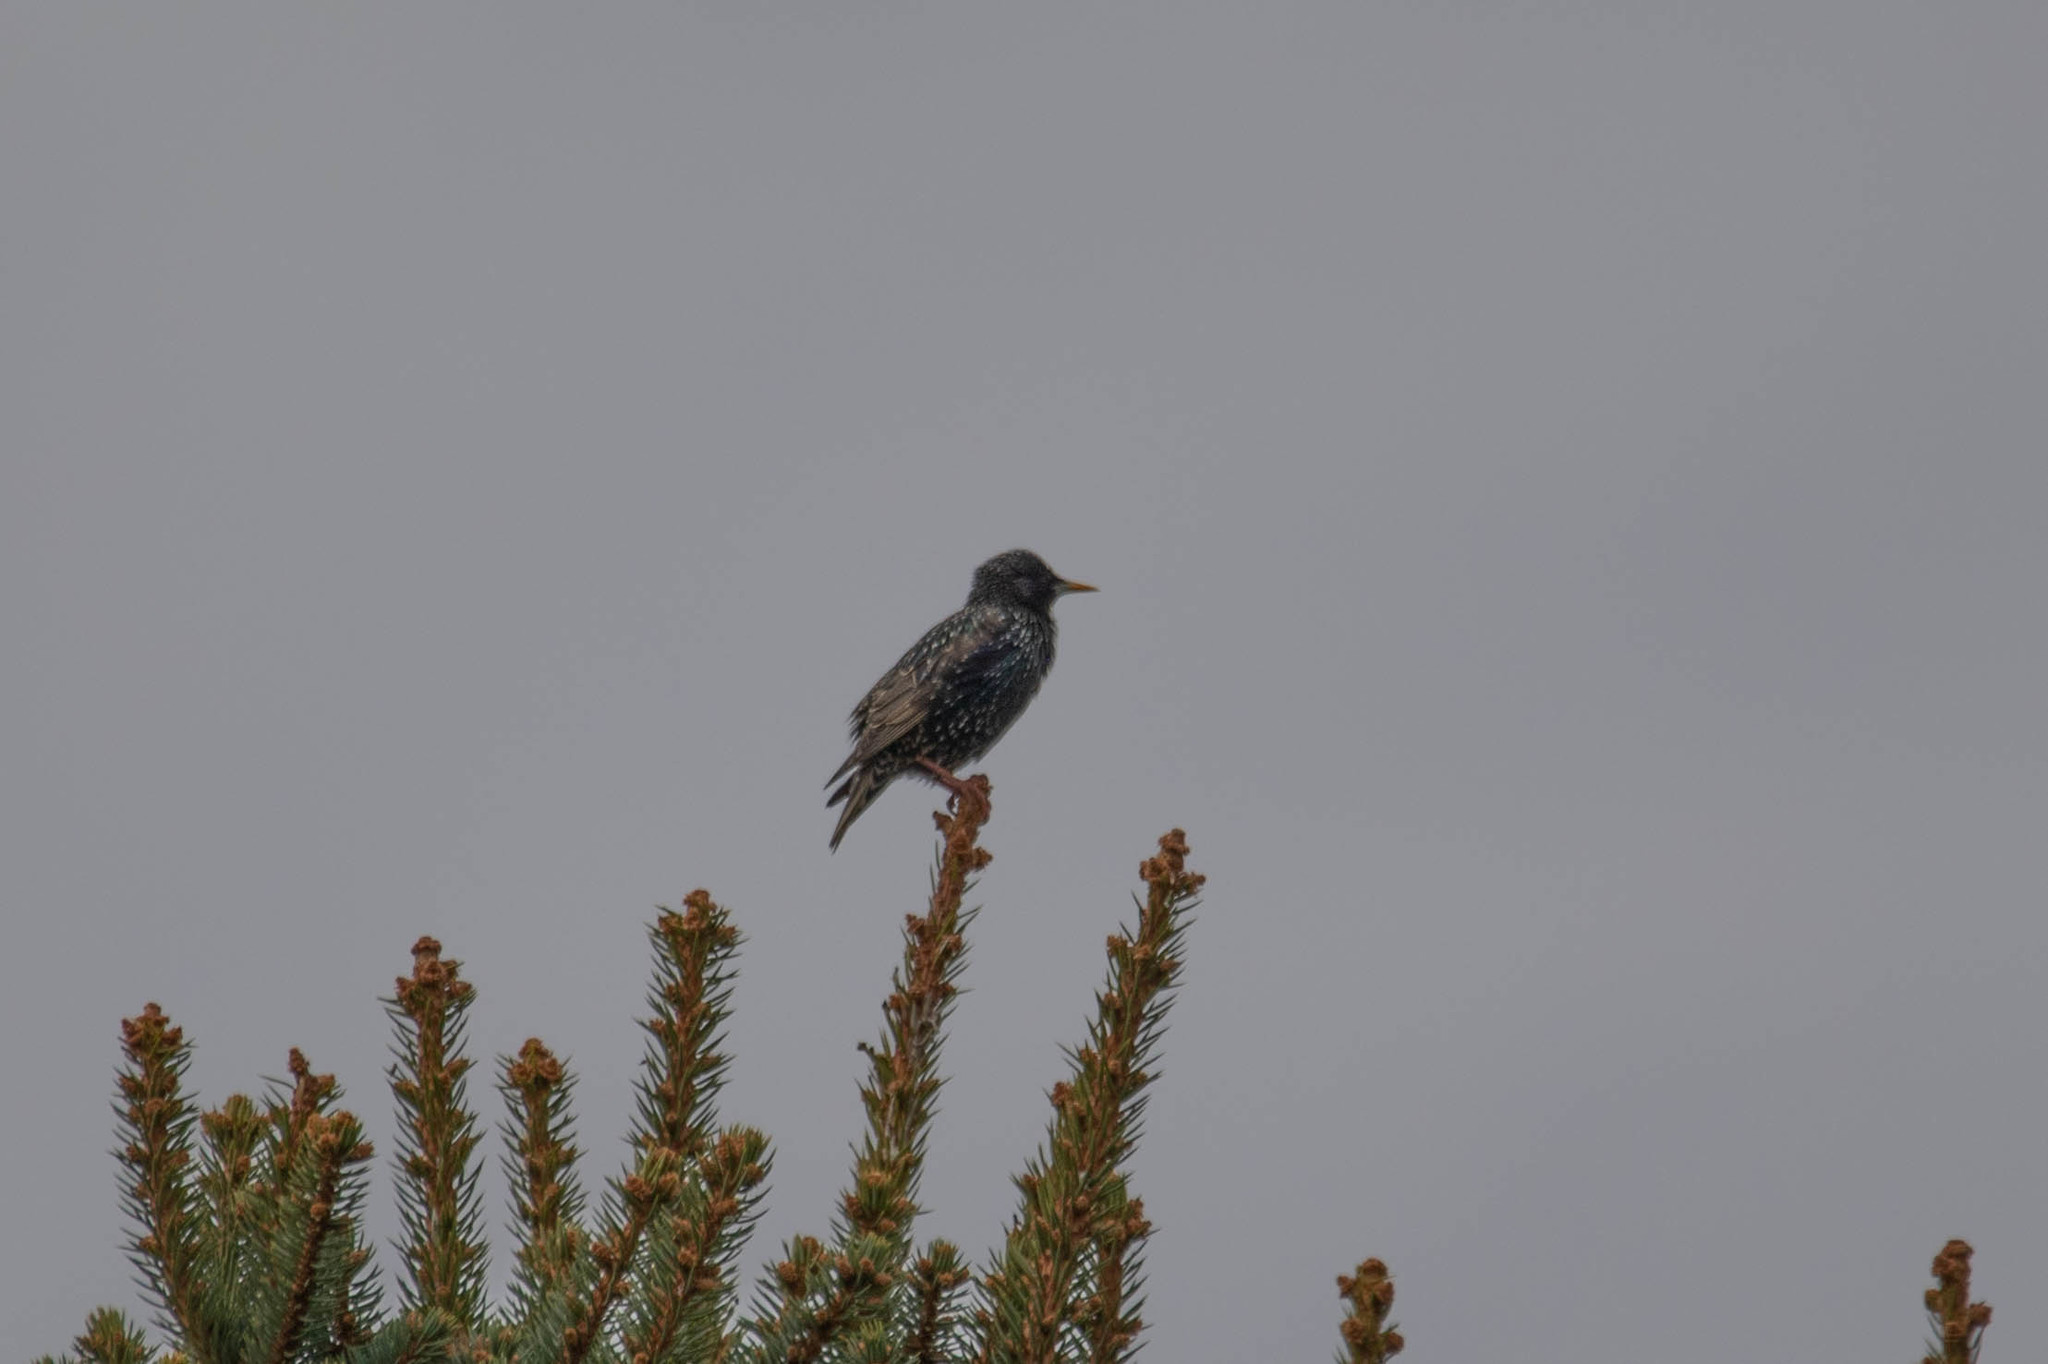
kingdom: Animalia
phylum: Chordata
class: Aves
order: Passeriformes
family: Sturnidae
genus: Sturnus
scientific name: Sturnus vulgaris
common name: Common starling
